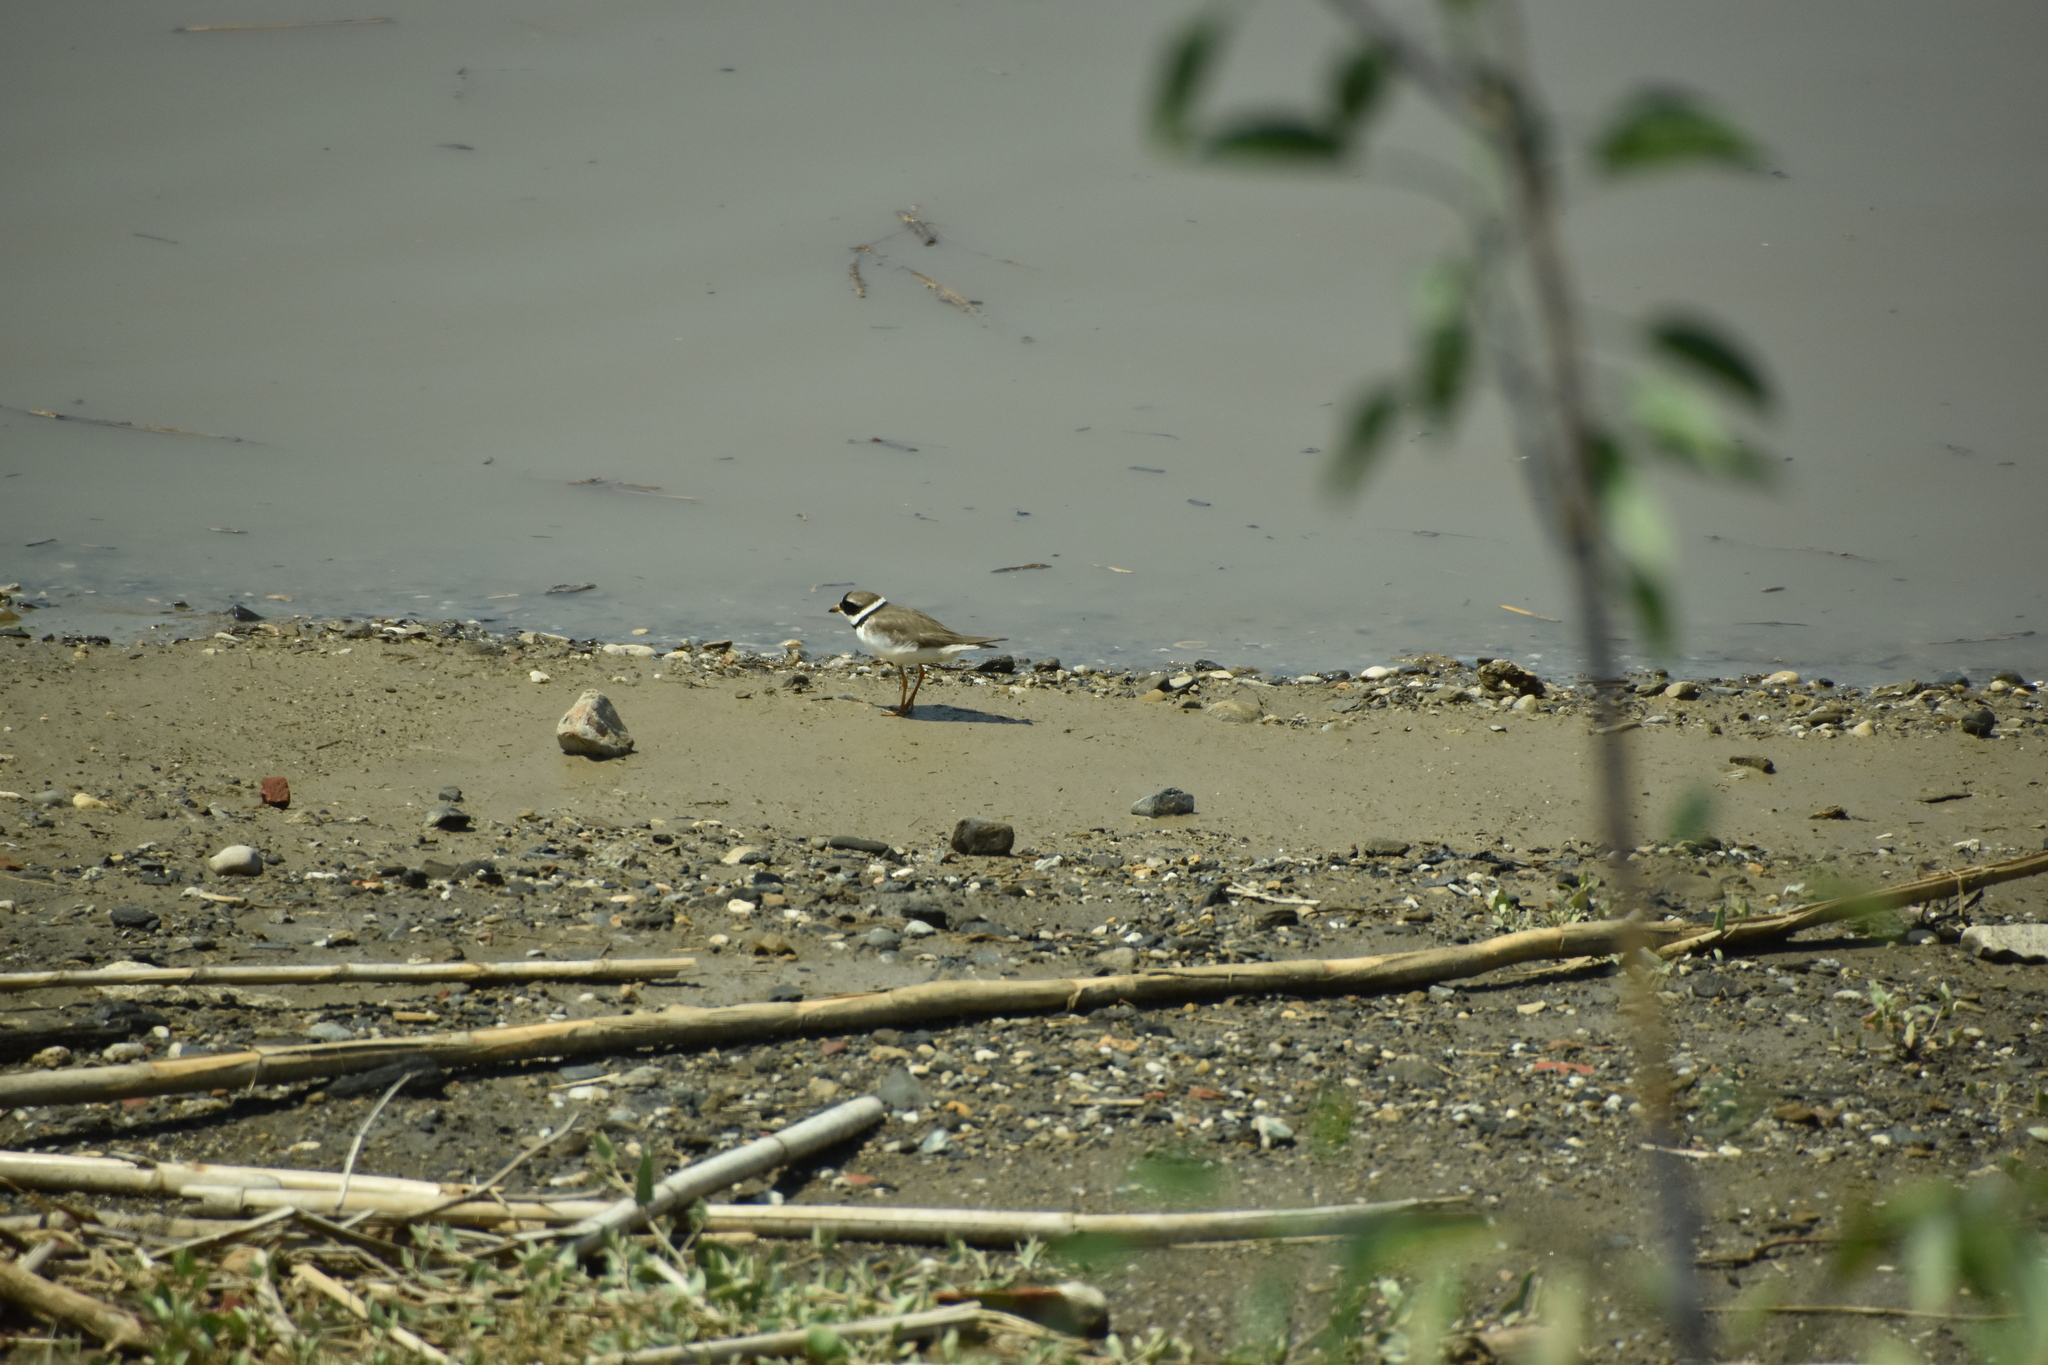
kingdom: Animalia
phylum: Chordata
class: Aves
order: Charadriiformes
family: Charadriidae
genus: Charadrius
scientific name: Charadrius hiaticula
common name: Common ringed plover
